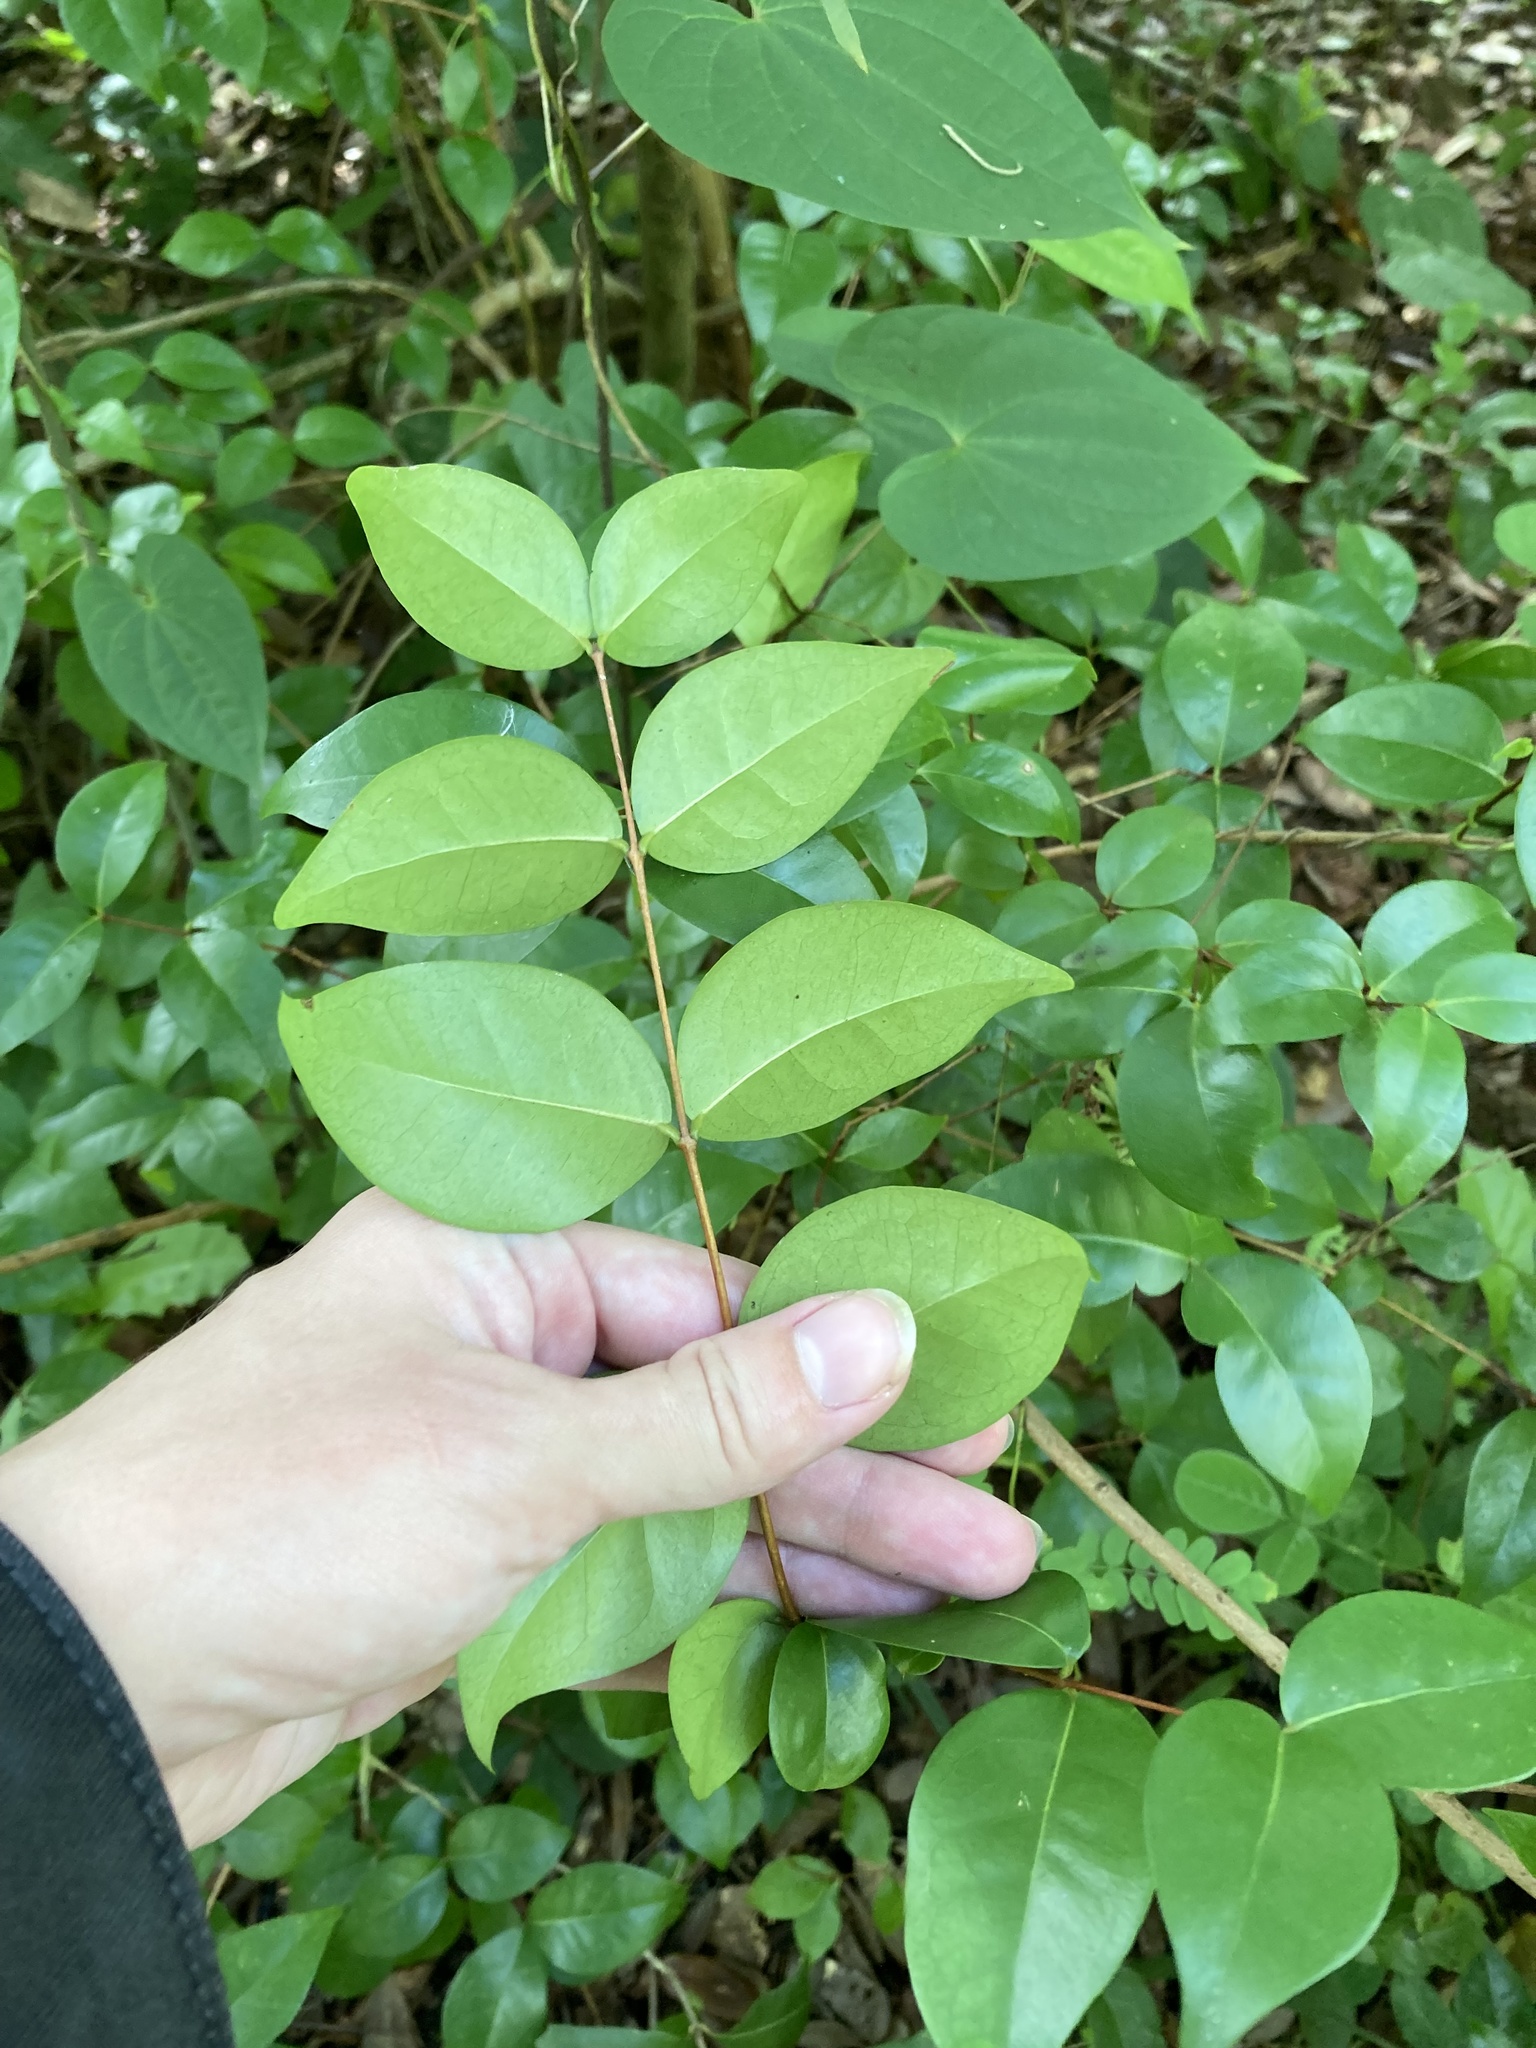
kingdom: Plantae
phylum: Tracheophyta
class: Magnoliopsida
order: Myrtales
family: Myrtaceae
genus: Eugenia
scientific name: Eugenia uniflora
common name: Surinam cherry
